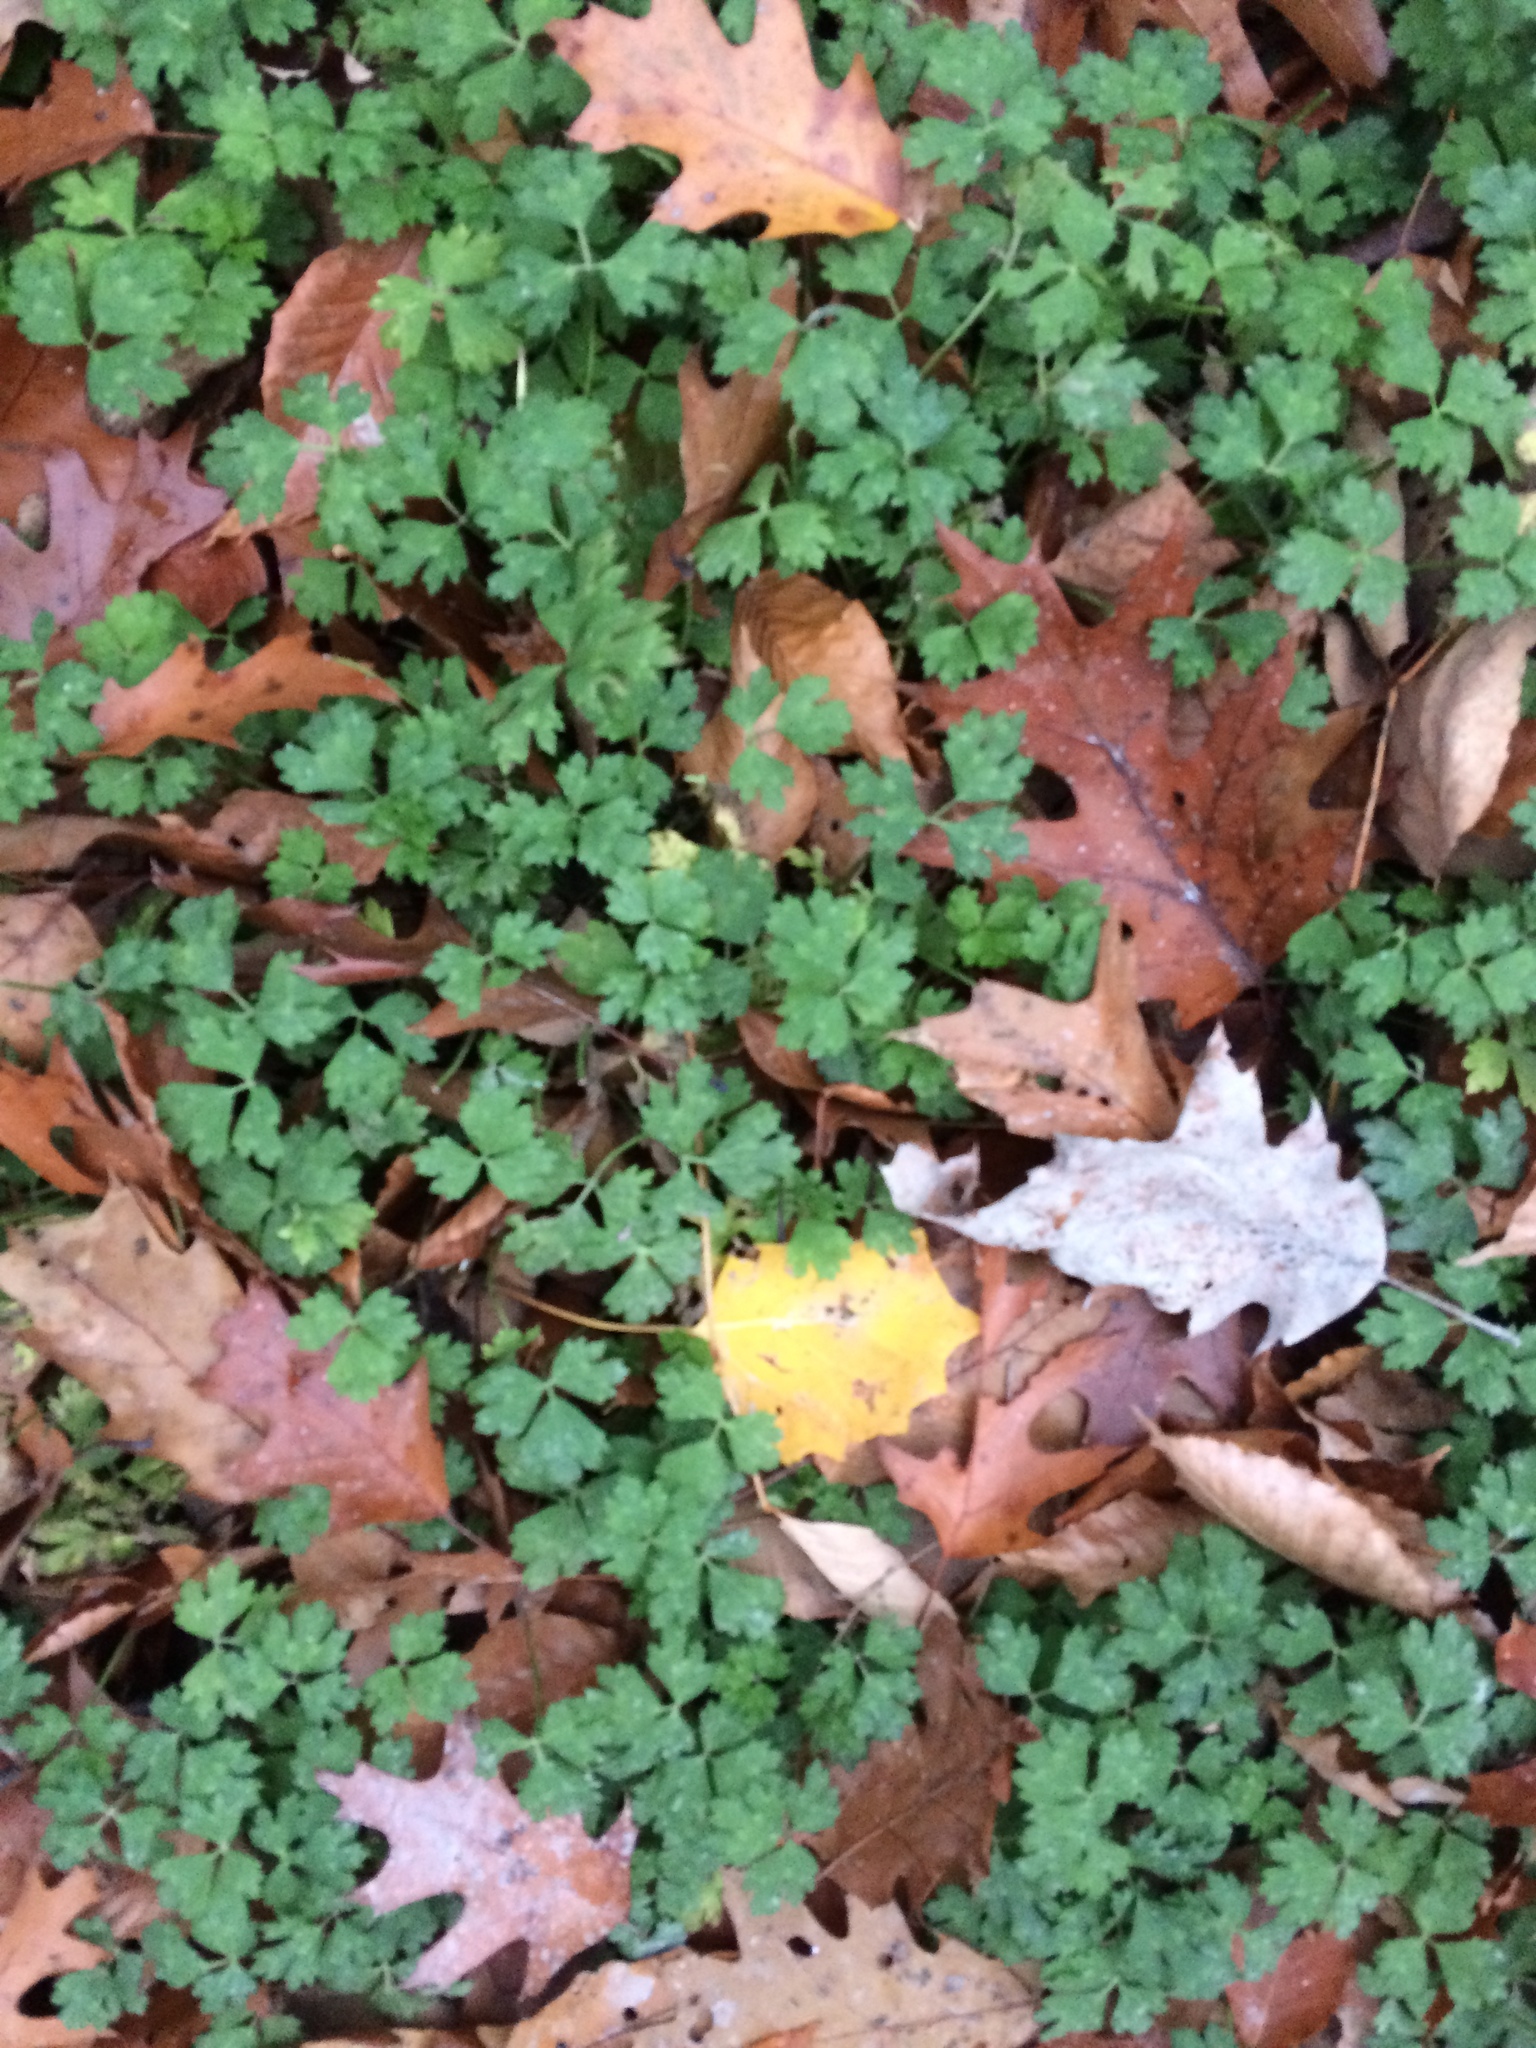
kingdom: Plantae
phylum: Tracheophyta
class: Magnoliopsida
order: Ranunculales
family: Ranunculaceae
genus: Ranunculus
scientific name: Ranunculus repens
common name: Creeping buttercup
